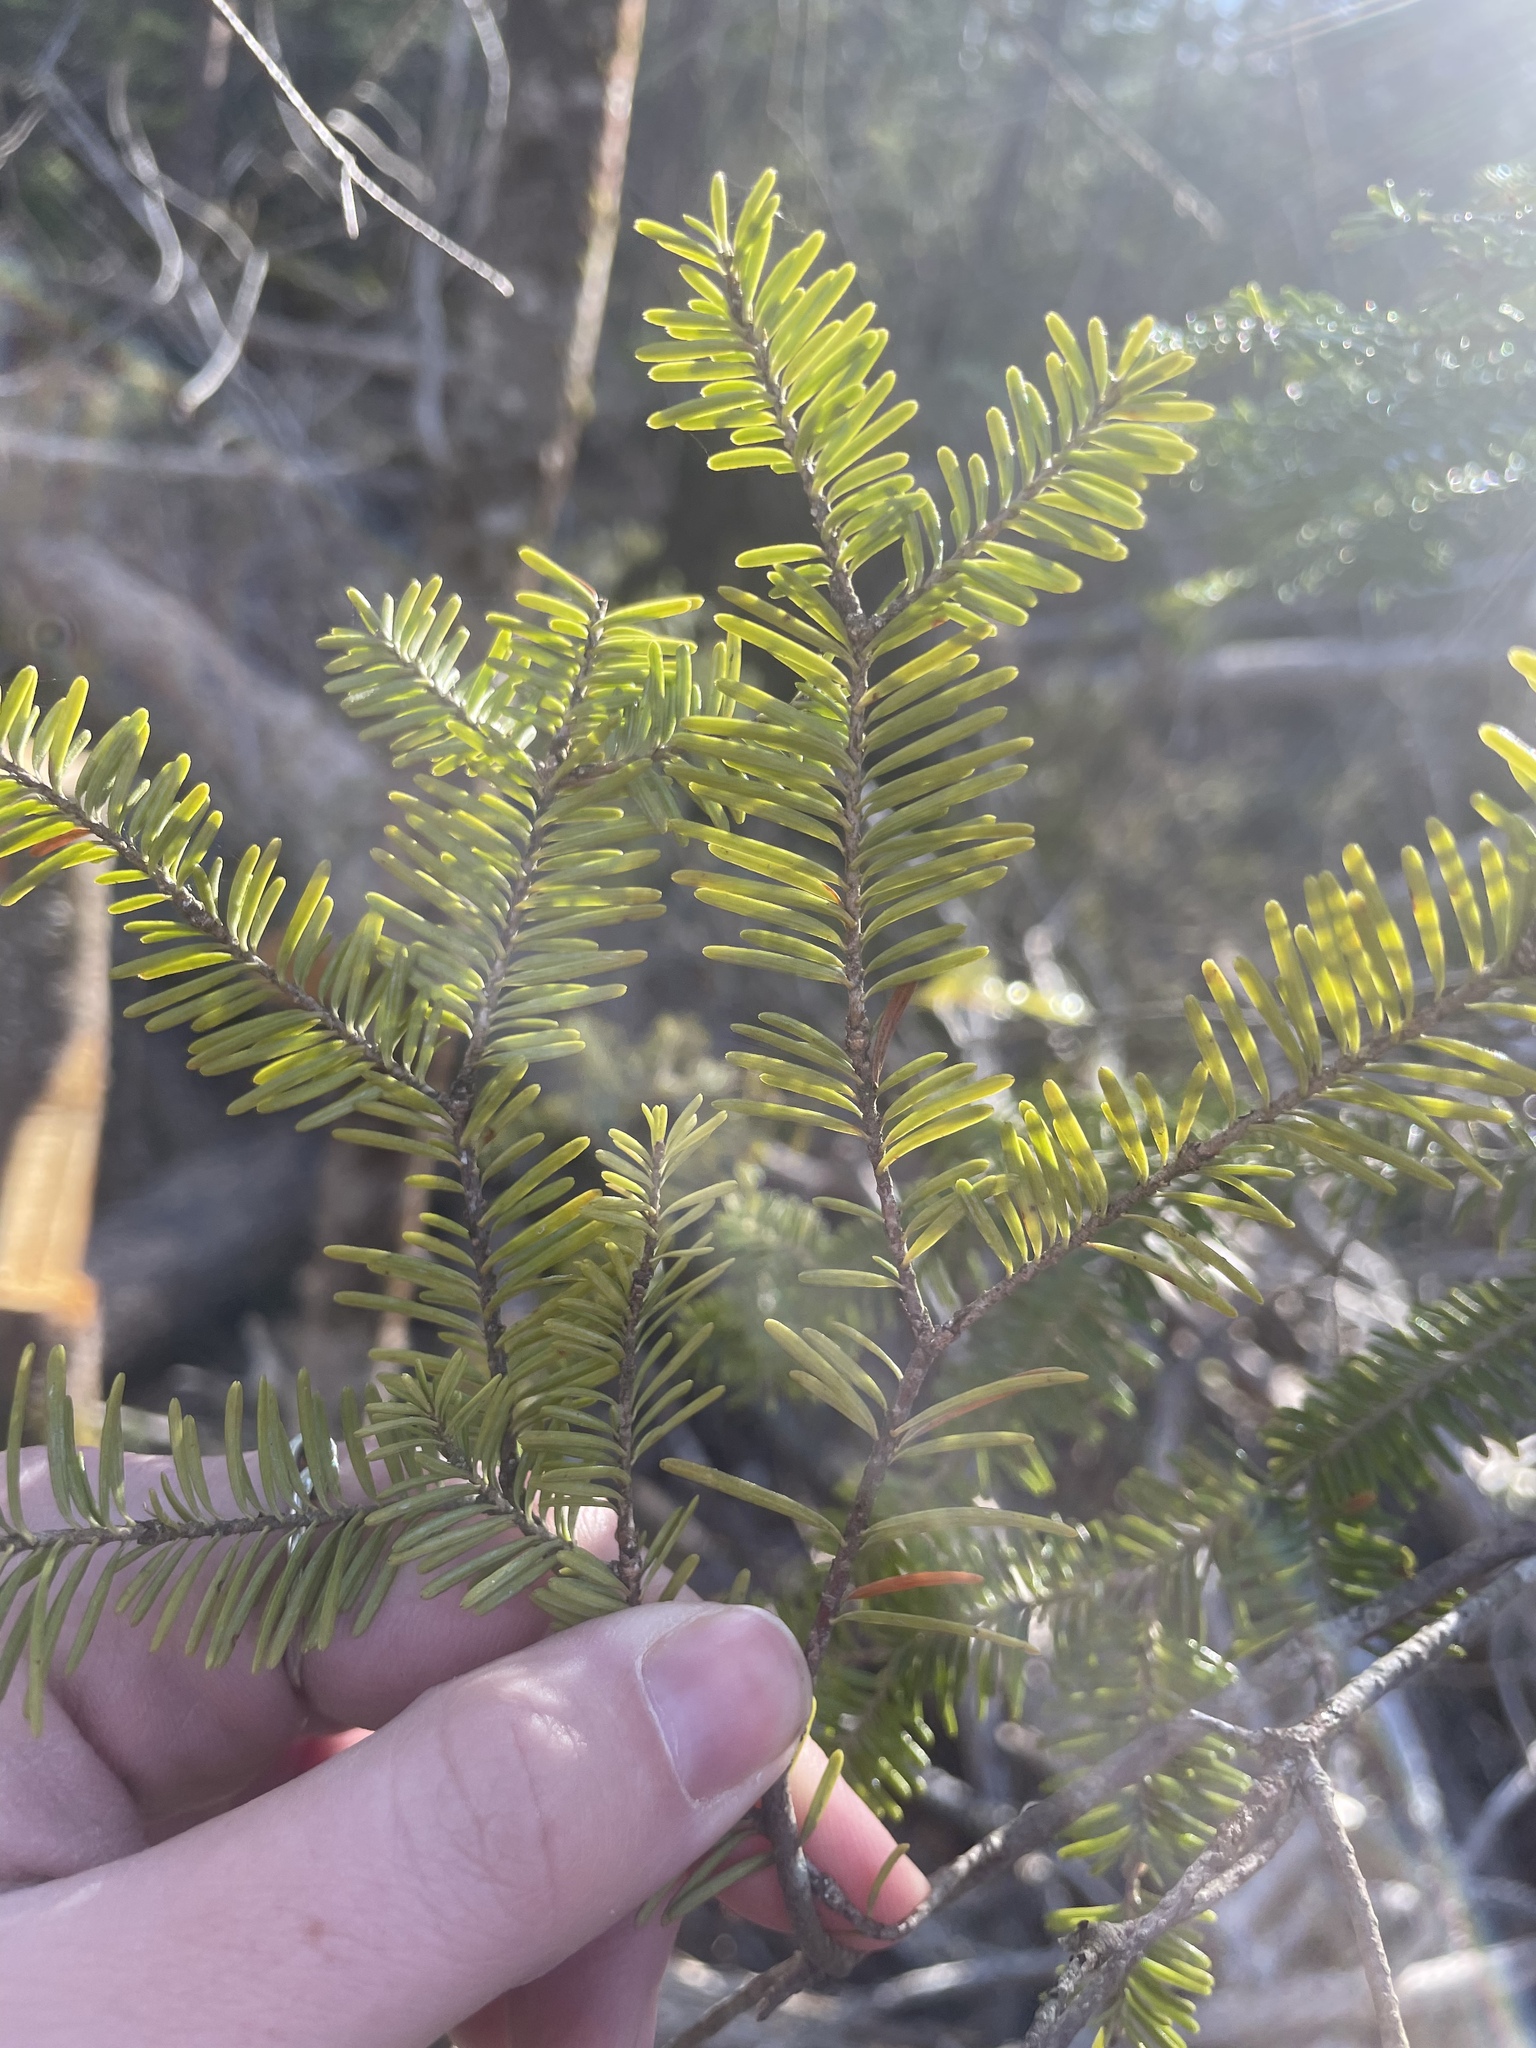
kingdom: Plantae
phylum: Tracheophyta
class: Pinopsida
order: Pinales
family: Pinaceae
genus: Abies
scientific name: Abies balsamea
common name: Balsam fir
